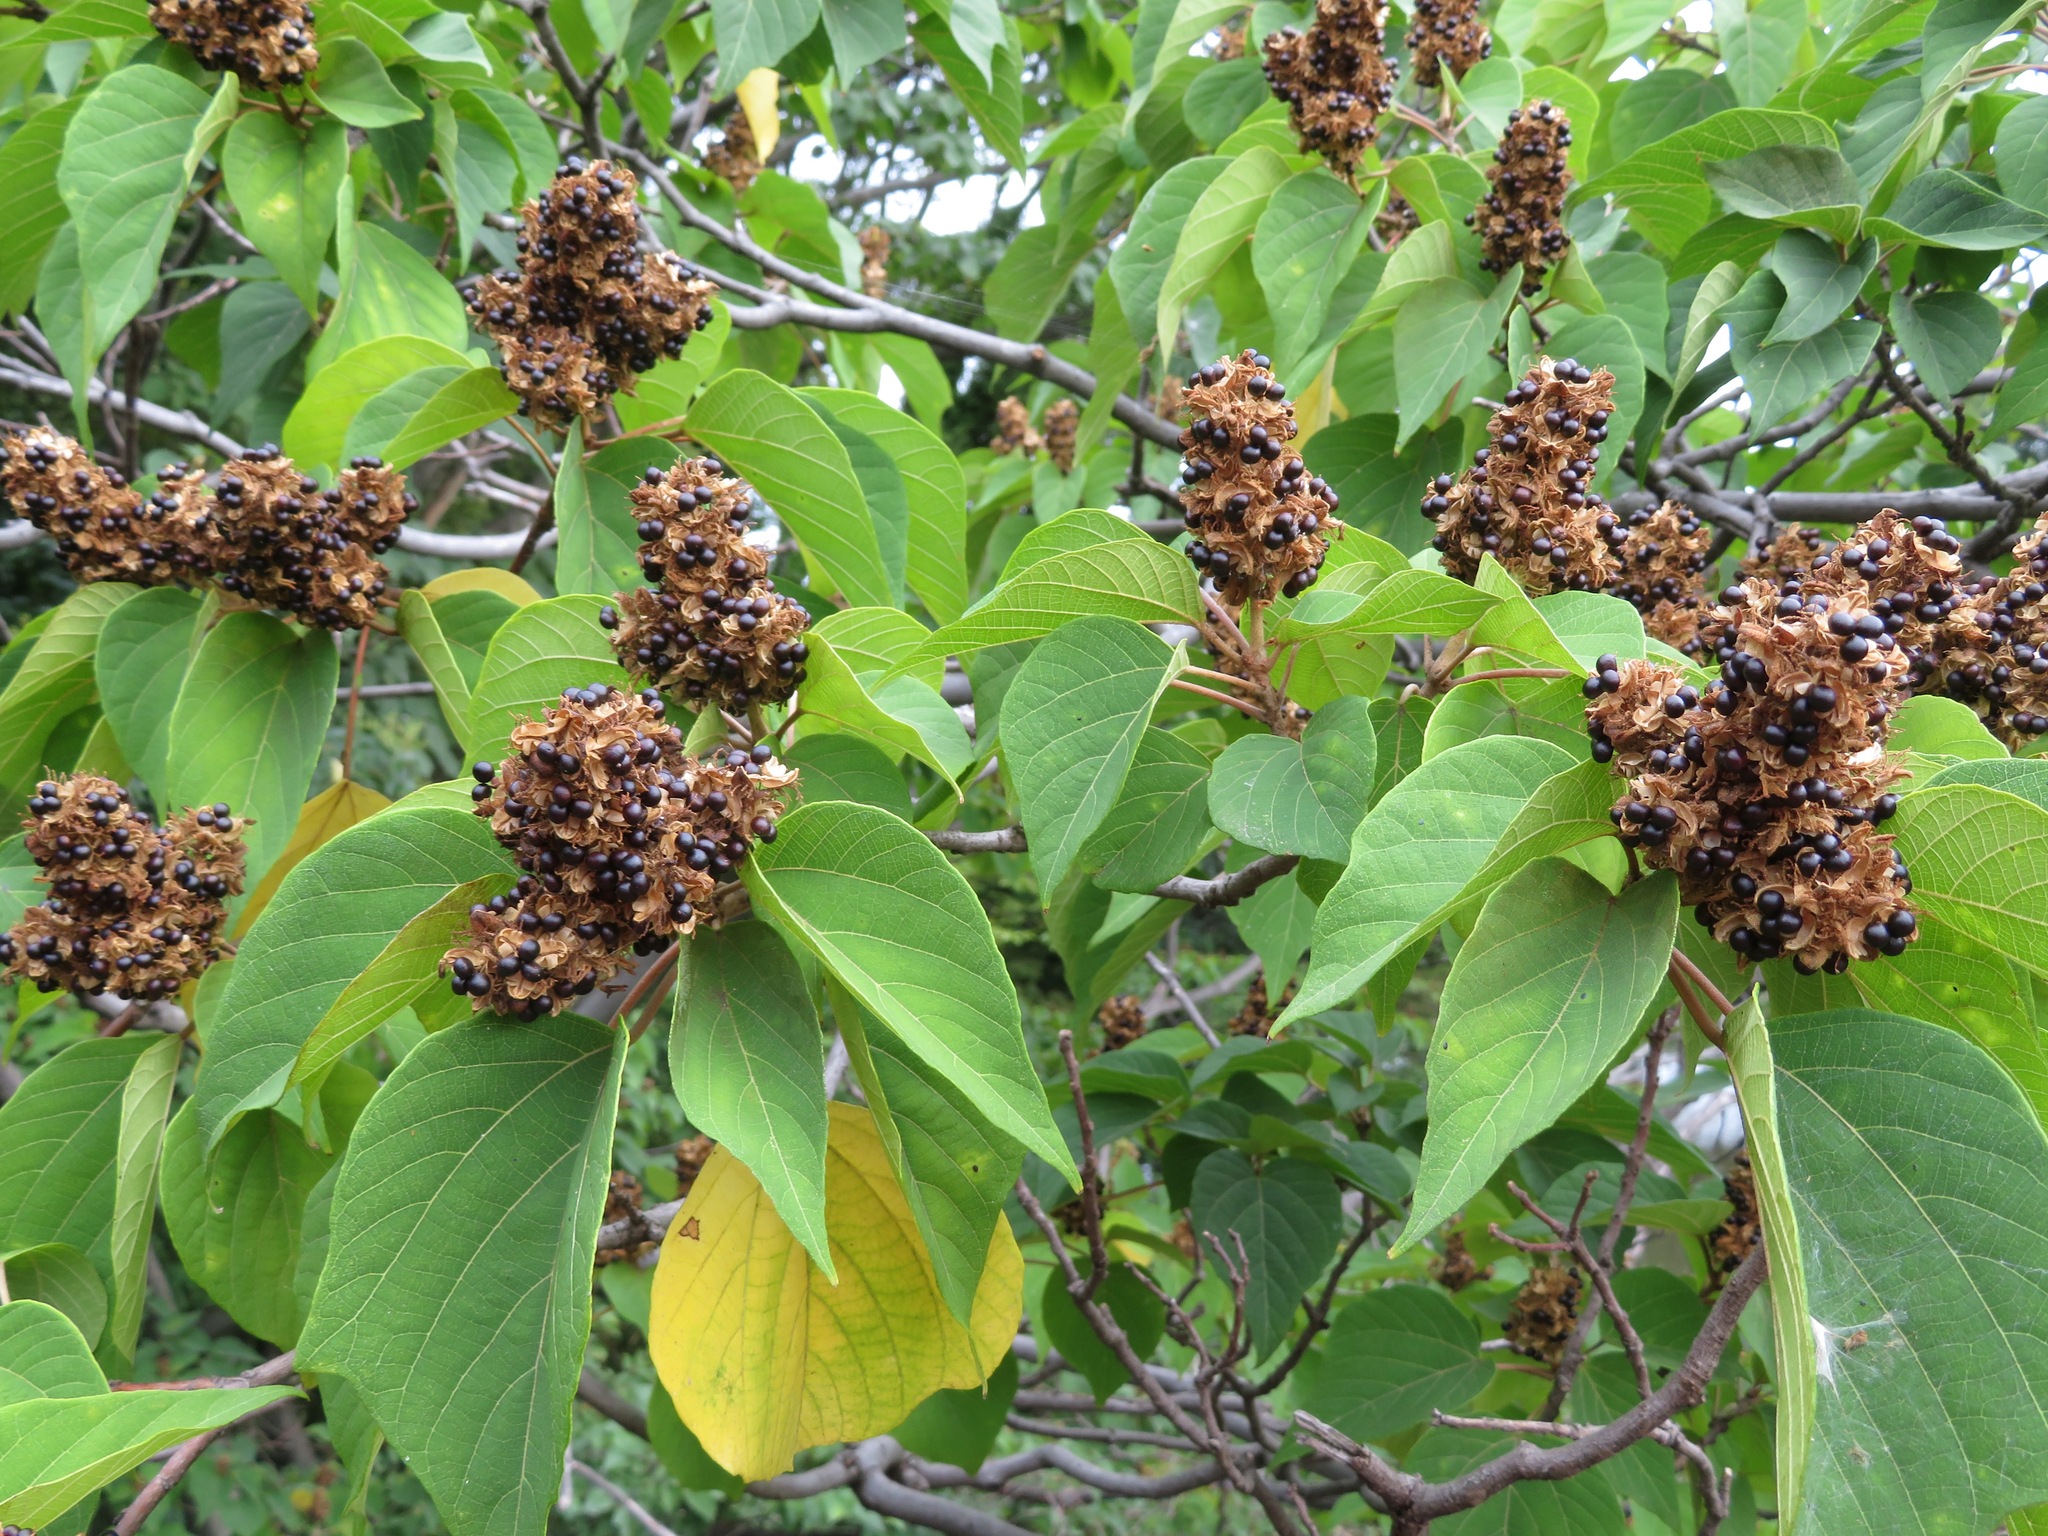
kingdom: Plantae
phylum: Tracheophyta
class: Magnoliopsida
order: Malpighiales
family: Euphorbiaceae
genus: Mallotus
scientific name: Mallotus japonicus
